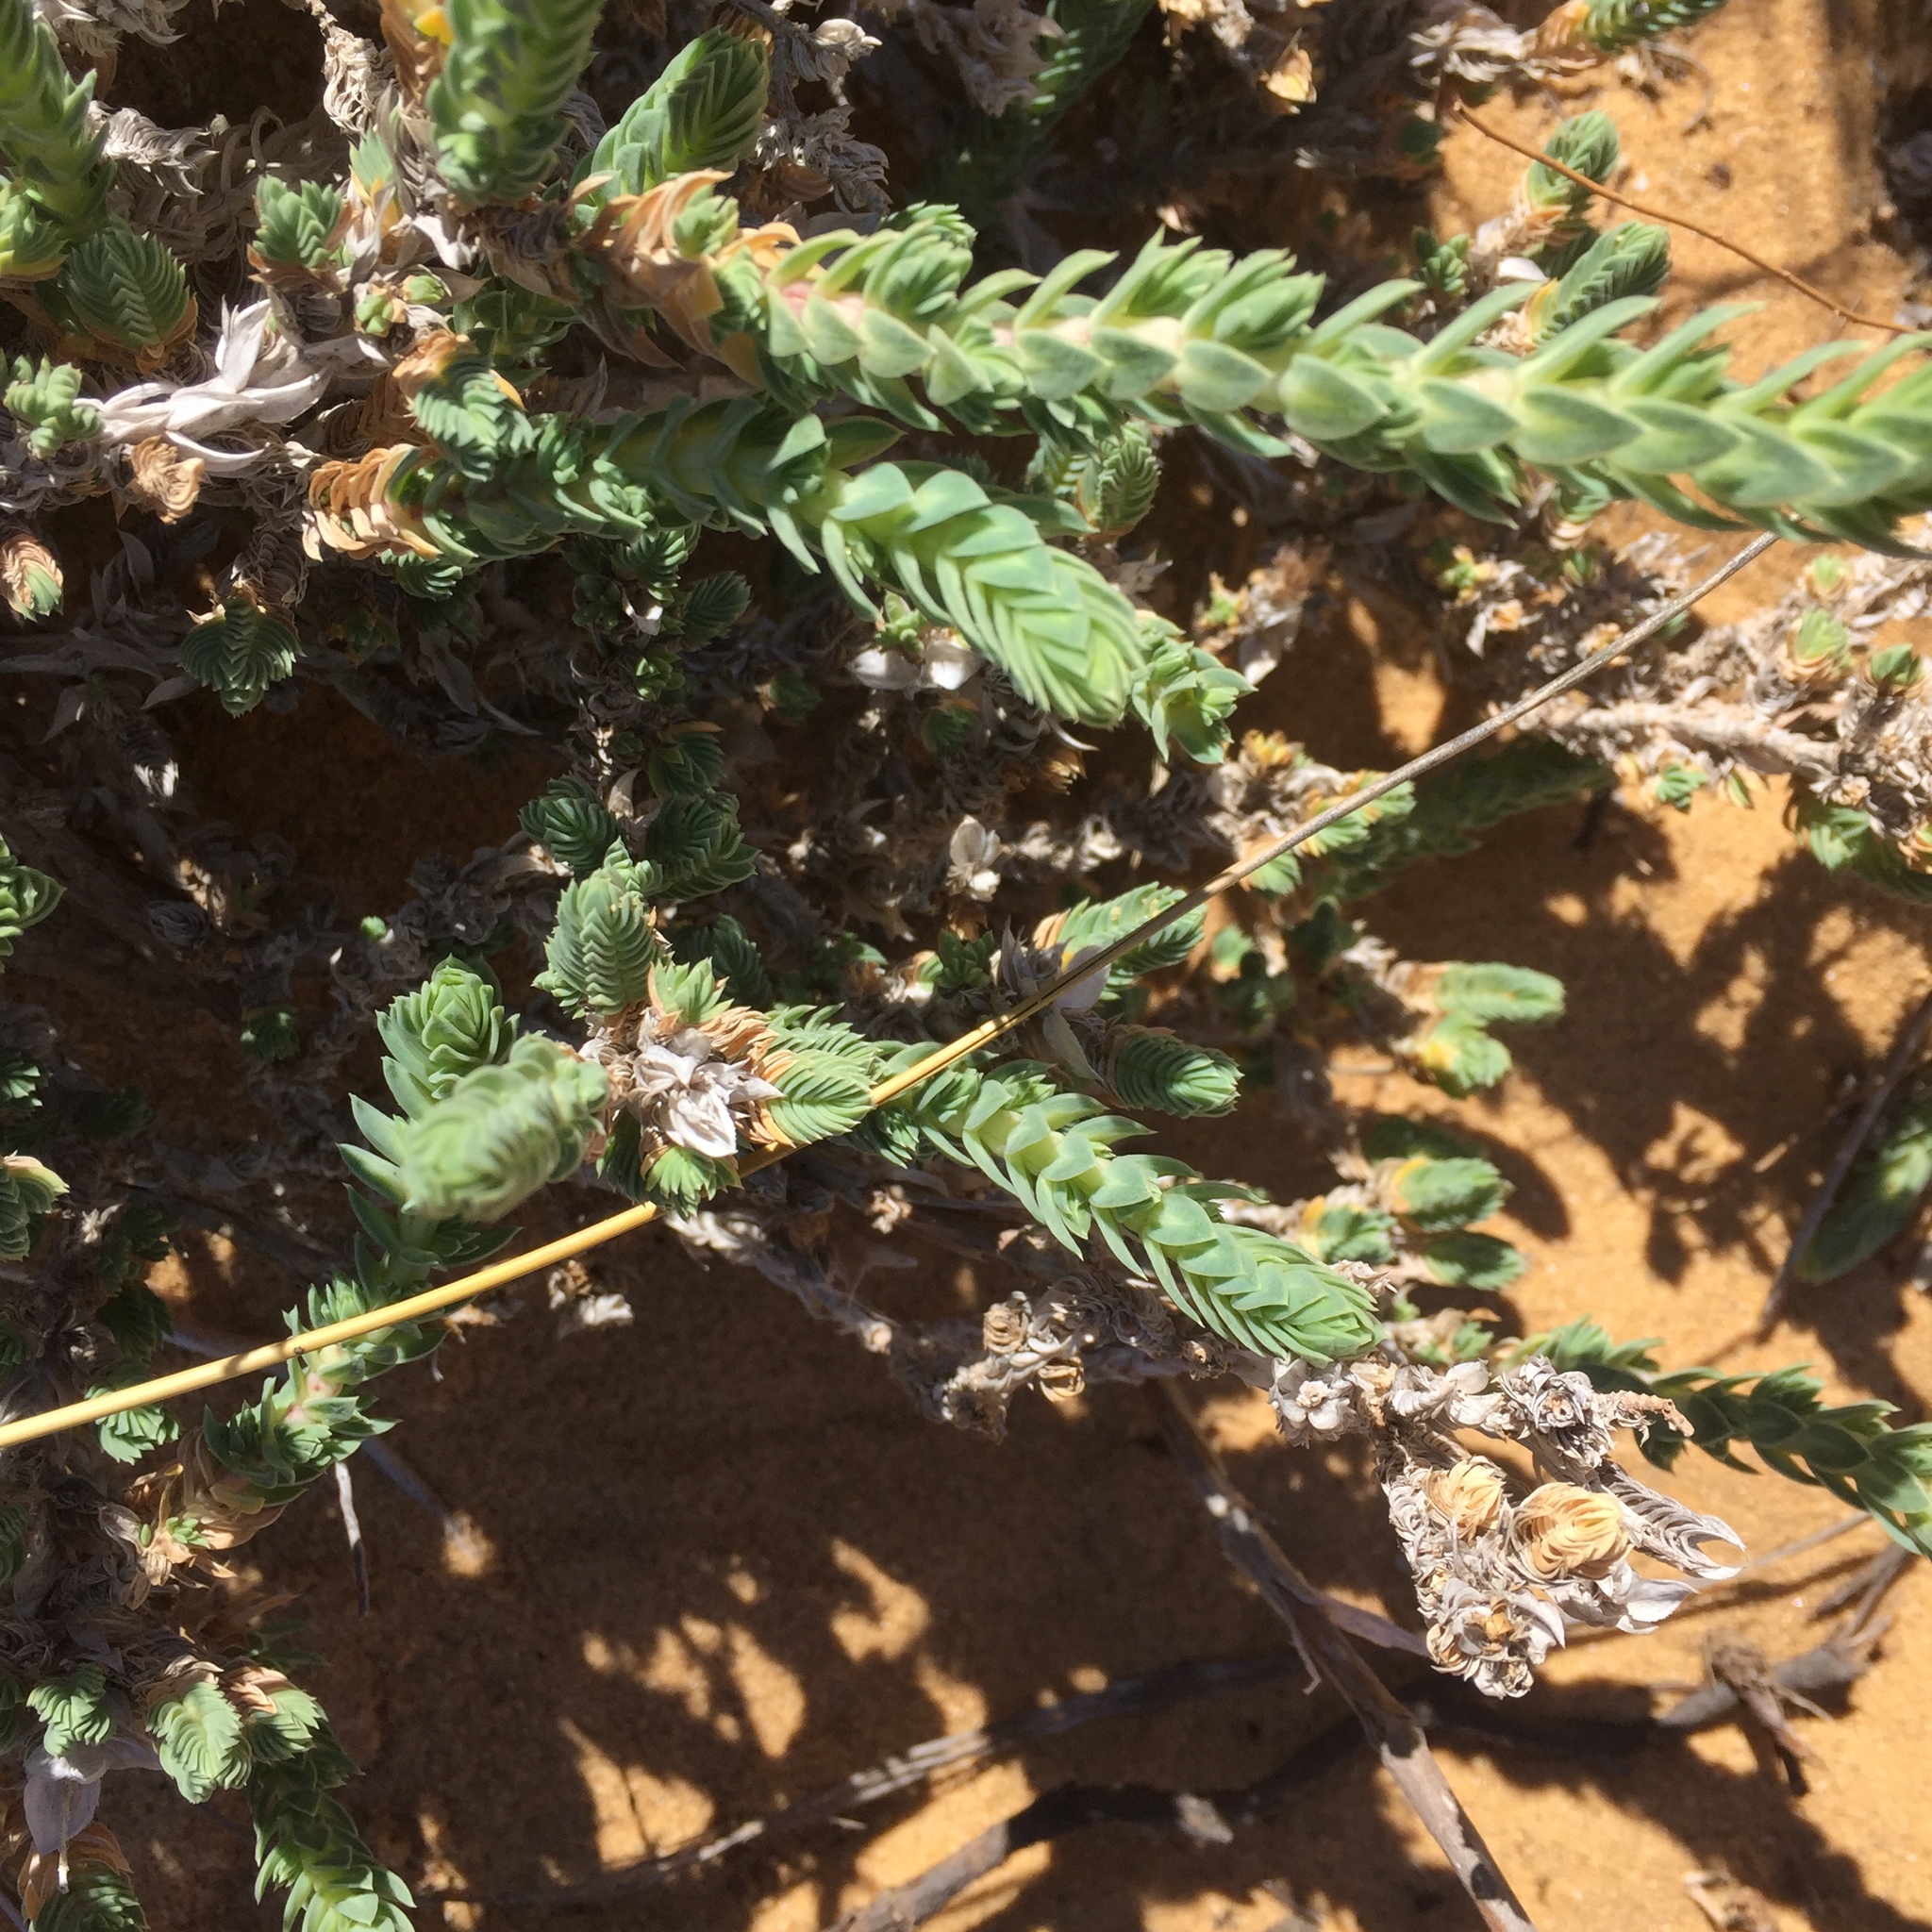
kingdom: Plantae
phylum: Tracheophyta
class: Magnoliopsida
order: Gentianales
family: Rubiaceae
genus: Crucianella
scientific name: Crucianella maritima
